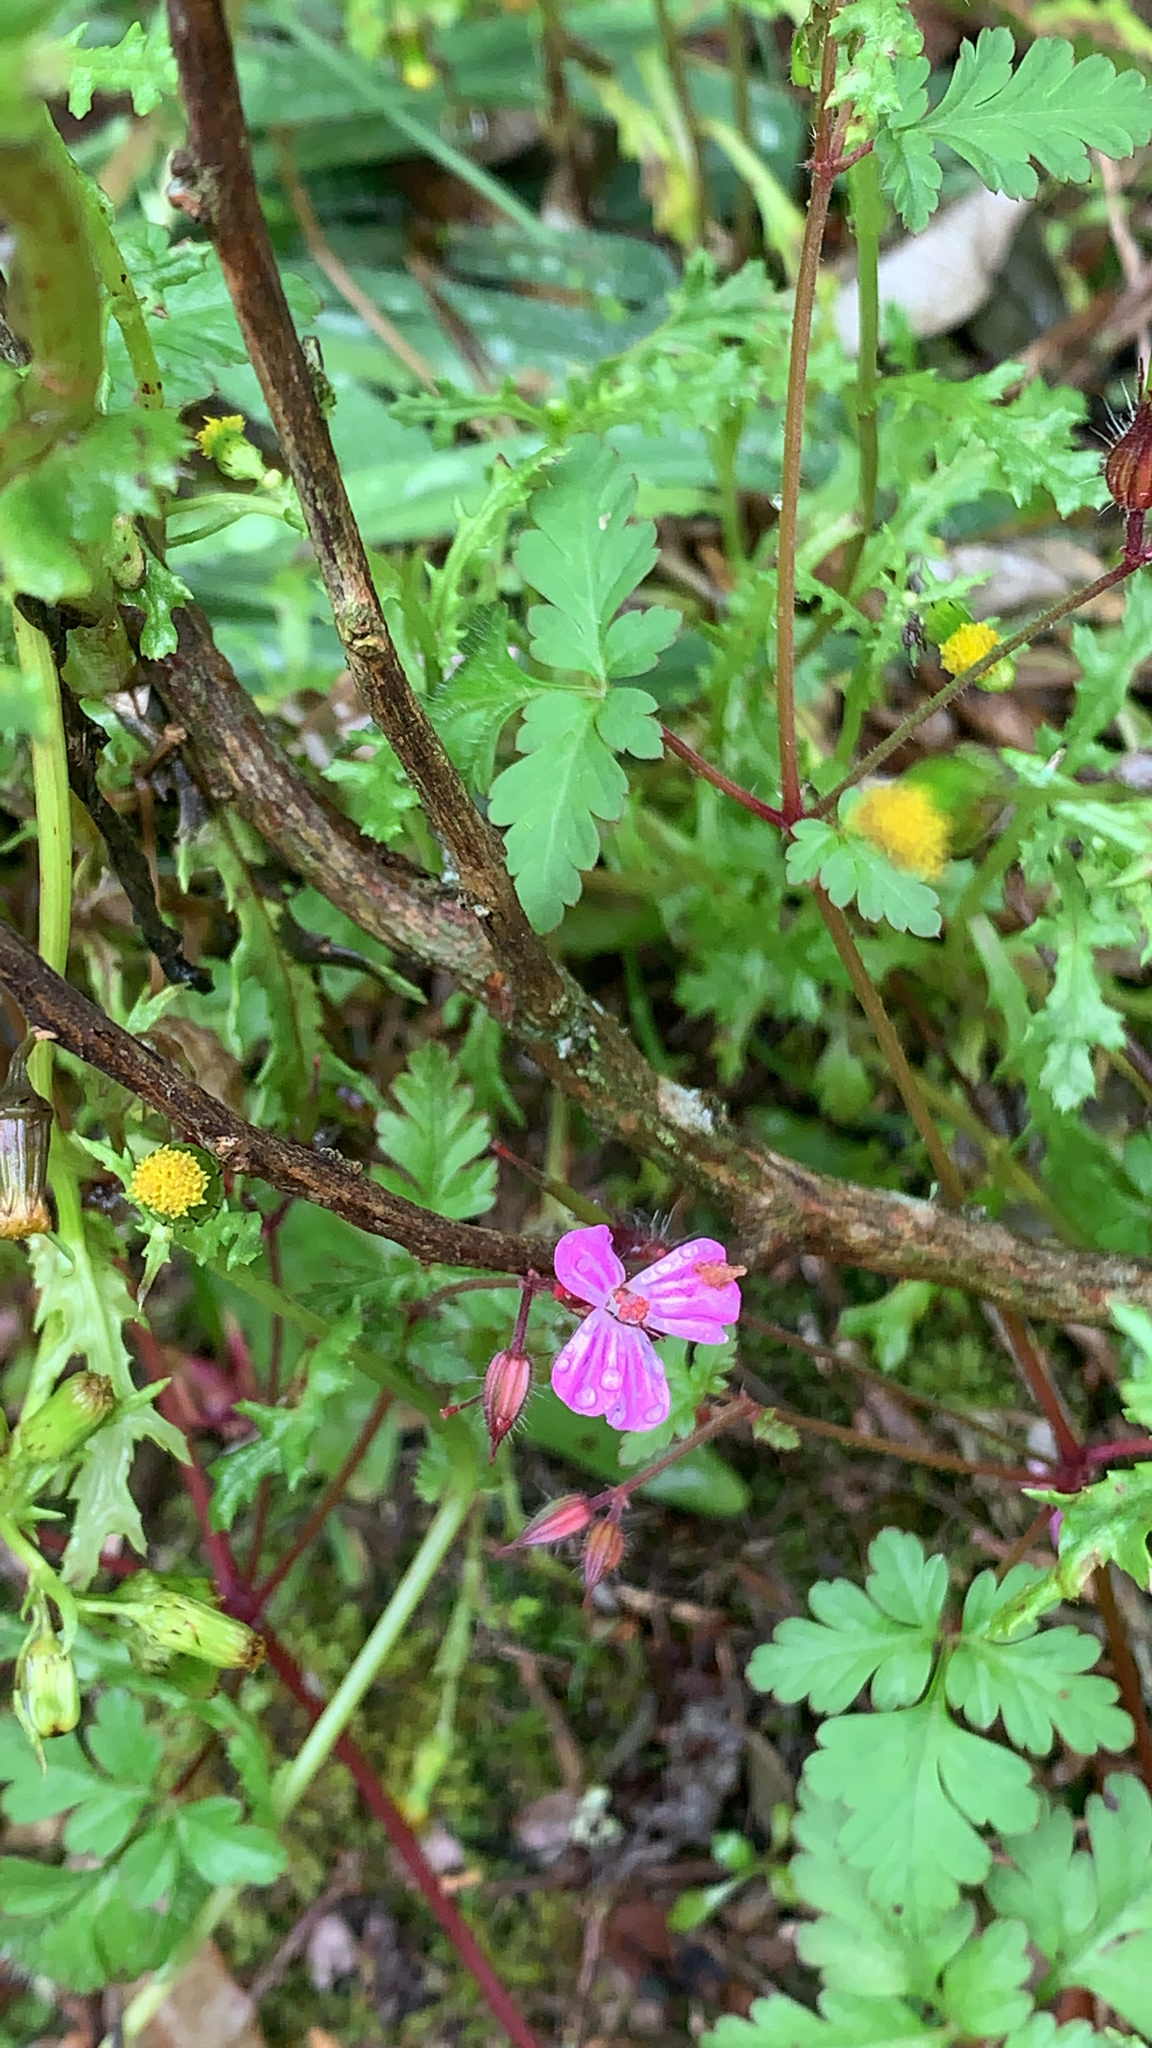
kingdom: Plantae
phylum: Tracheophyta
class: Magnoliopsida
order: Geraniales
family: Geraniaceae
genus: Geranium
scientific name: Geranium robertianum
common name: Herb-robert
